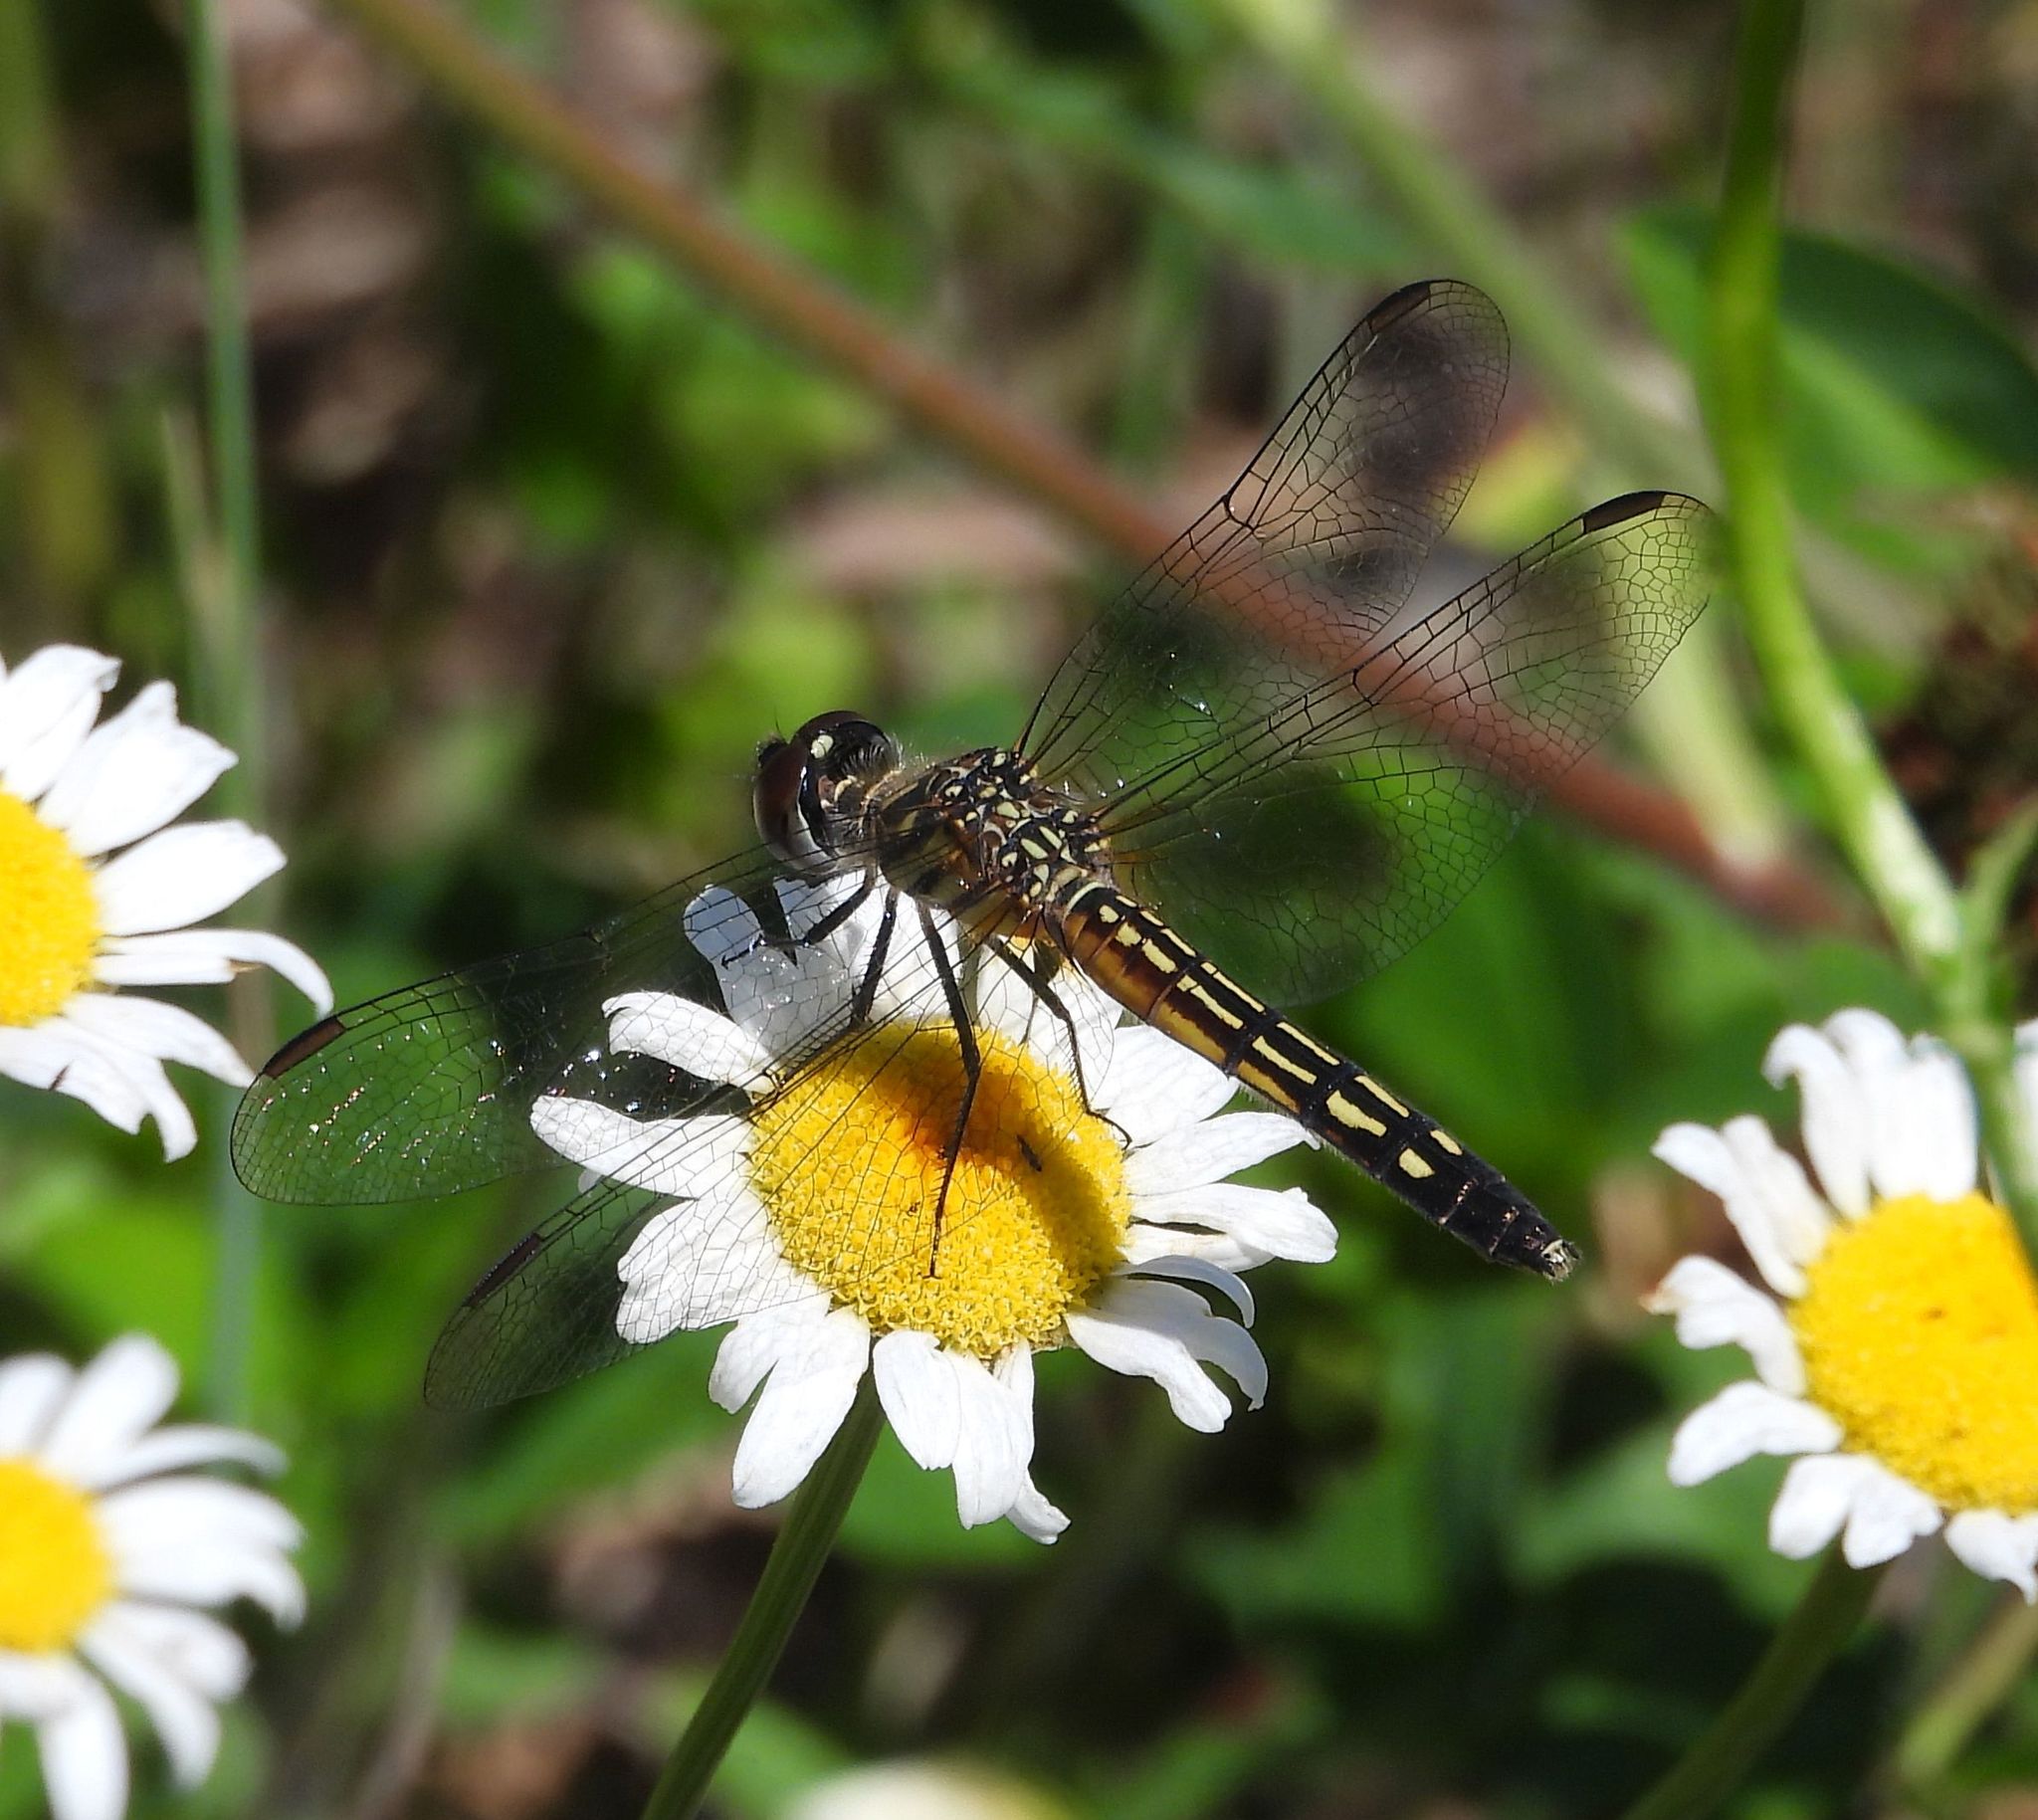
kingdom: Animalia
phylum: Arthropoda
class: Insecta
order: Odonata
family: Libellulidae
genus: Pachydiplax
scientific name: Pachydiplax longipennis
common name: Blue dasher
